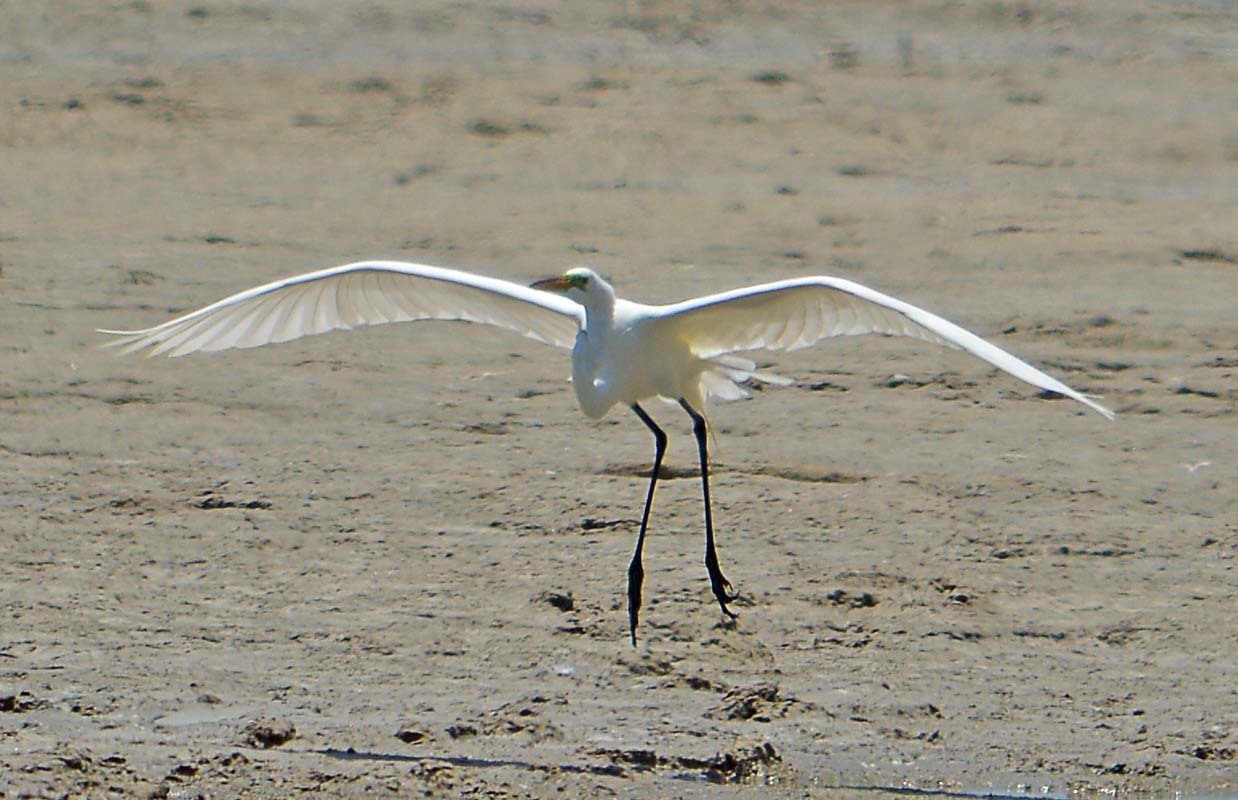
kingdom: Animalia
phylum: Chordata
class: Aves
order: Pelecaniformes
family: Ardeidae
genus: Ardea
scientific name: Ardea alba
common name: Great egret
